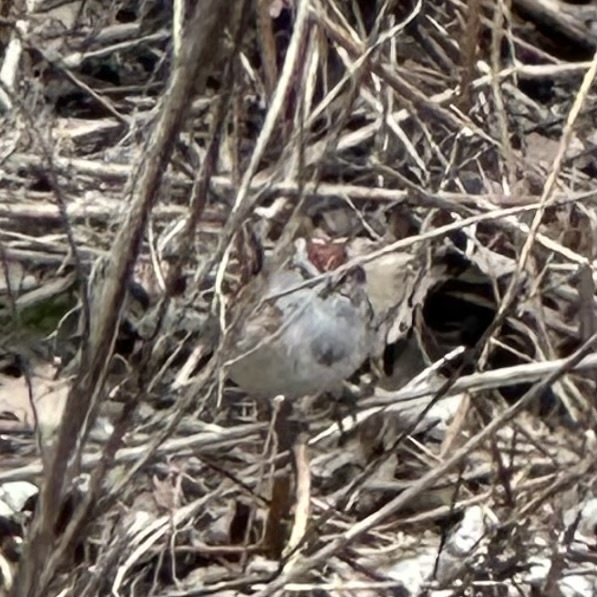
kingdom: Animalia
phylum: Chordata
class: Aves
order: Passeriformes
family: Passerellidae
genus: Spizelloides
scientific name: Spizelloides arborea
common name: American tree sparrow
